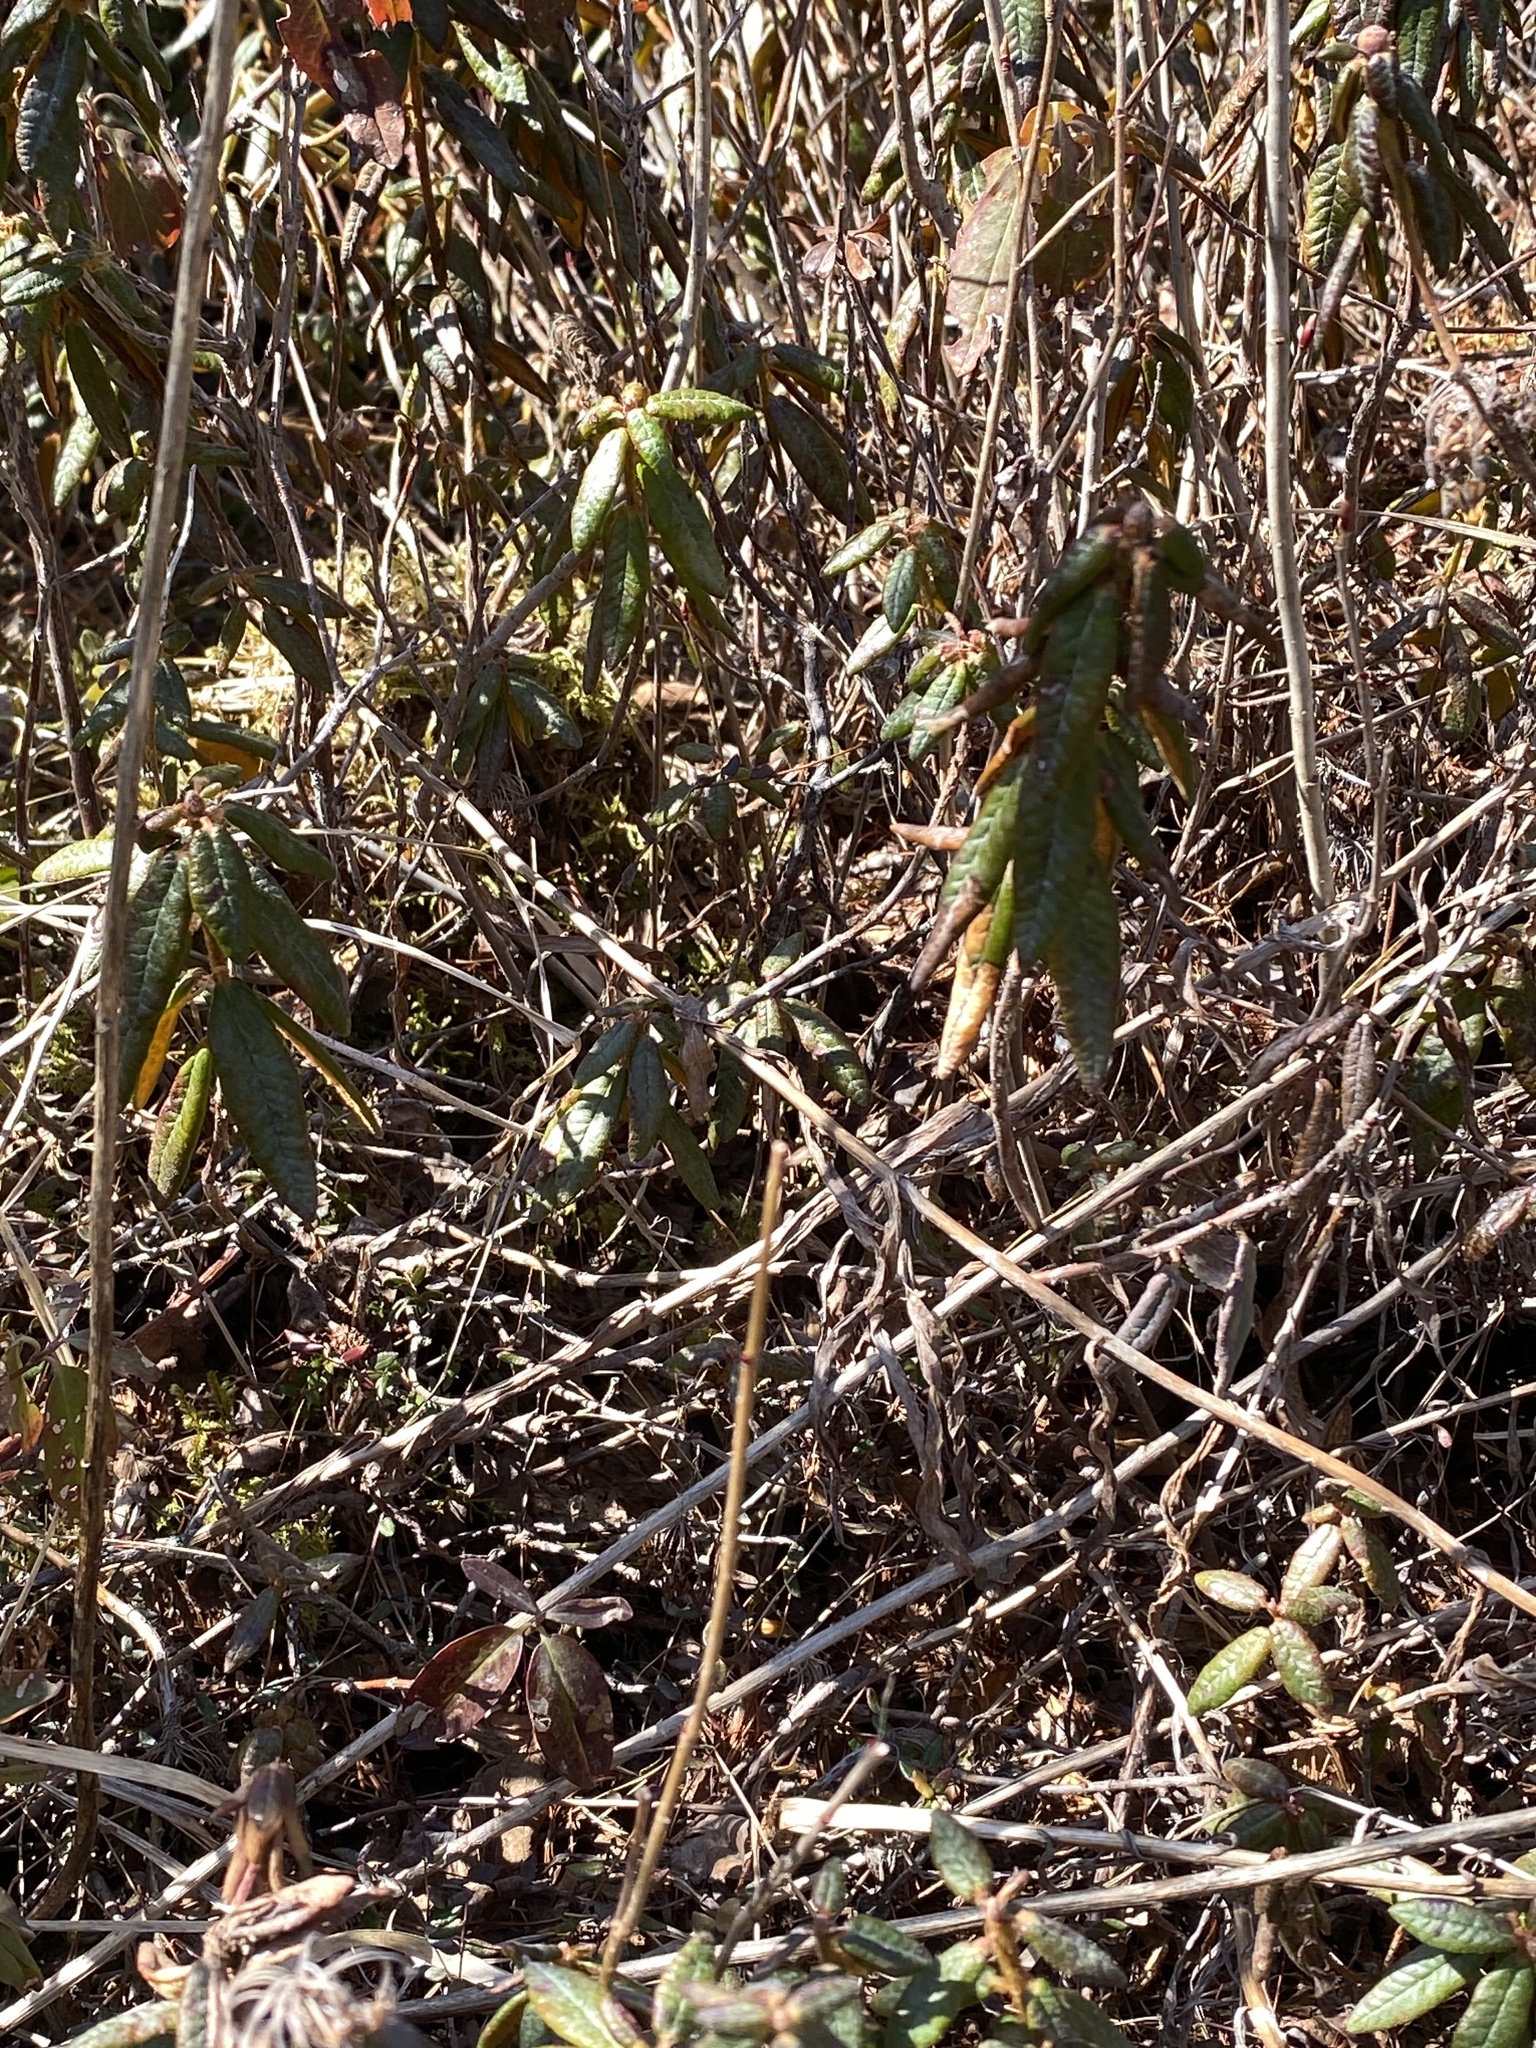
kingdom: Plantae
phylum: Tracheophyta
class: Magnoliopsida
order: Ericales
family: Ericaceae
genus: Rhododendron
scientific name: Rhododendron groenlandicum
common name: Bog labrador tea
